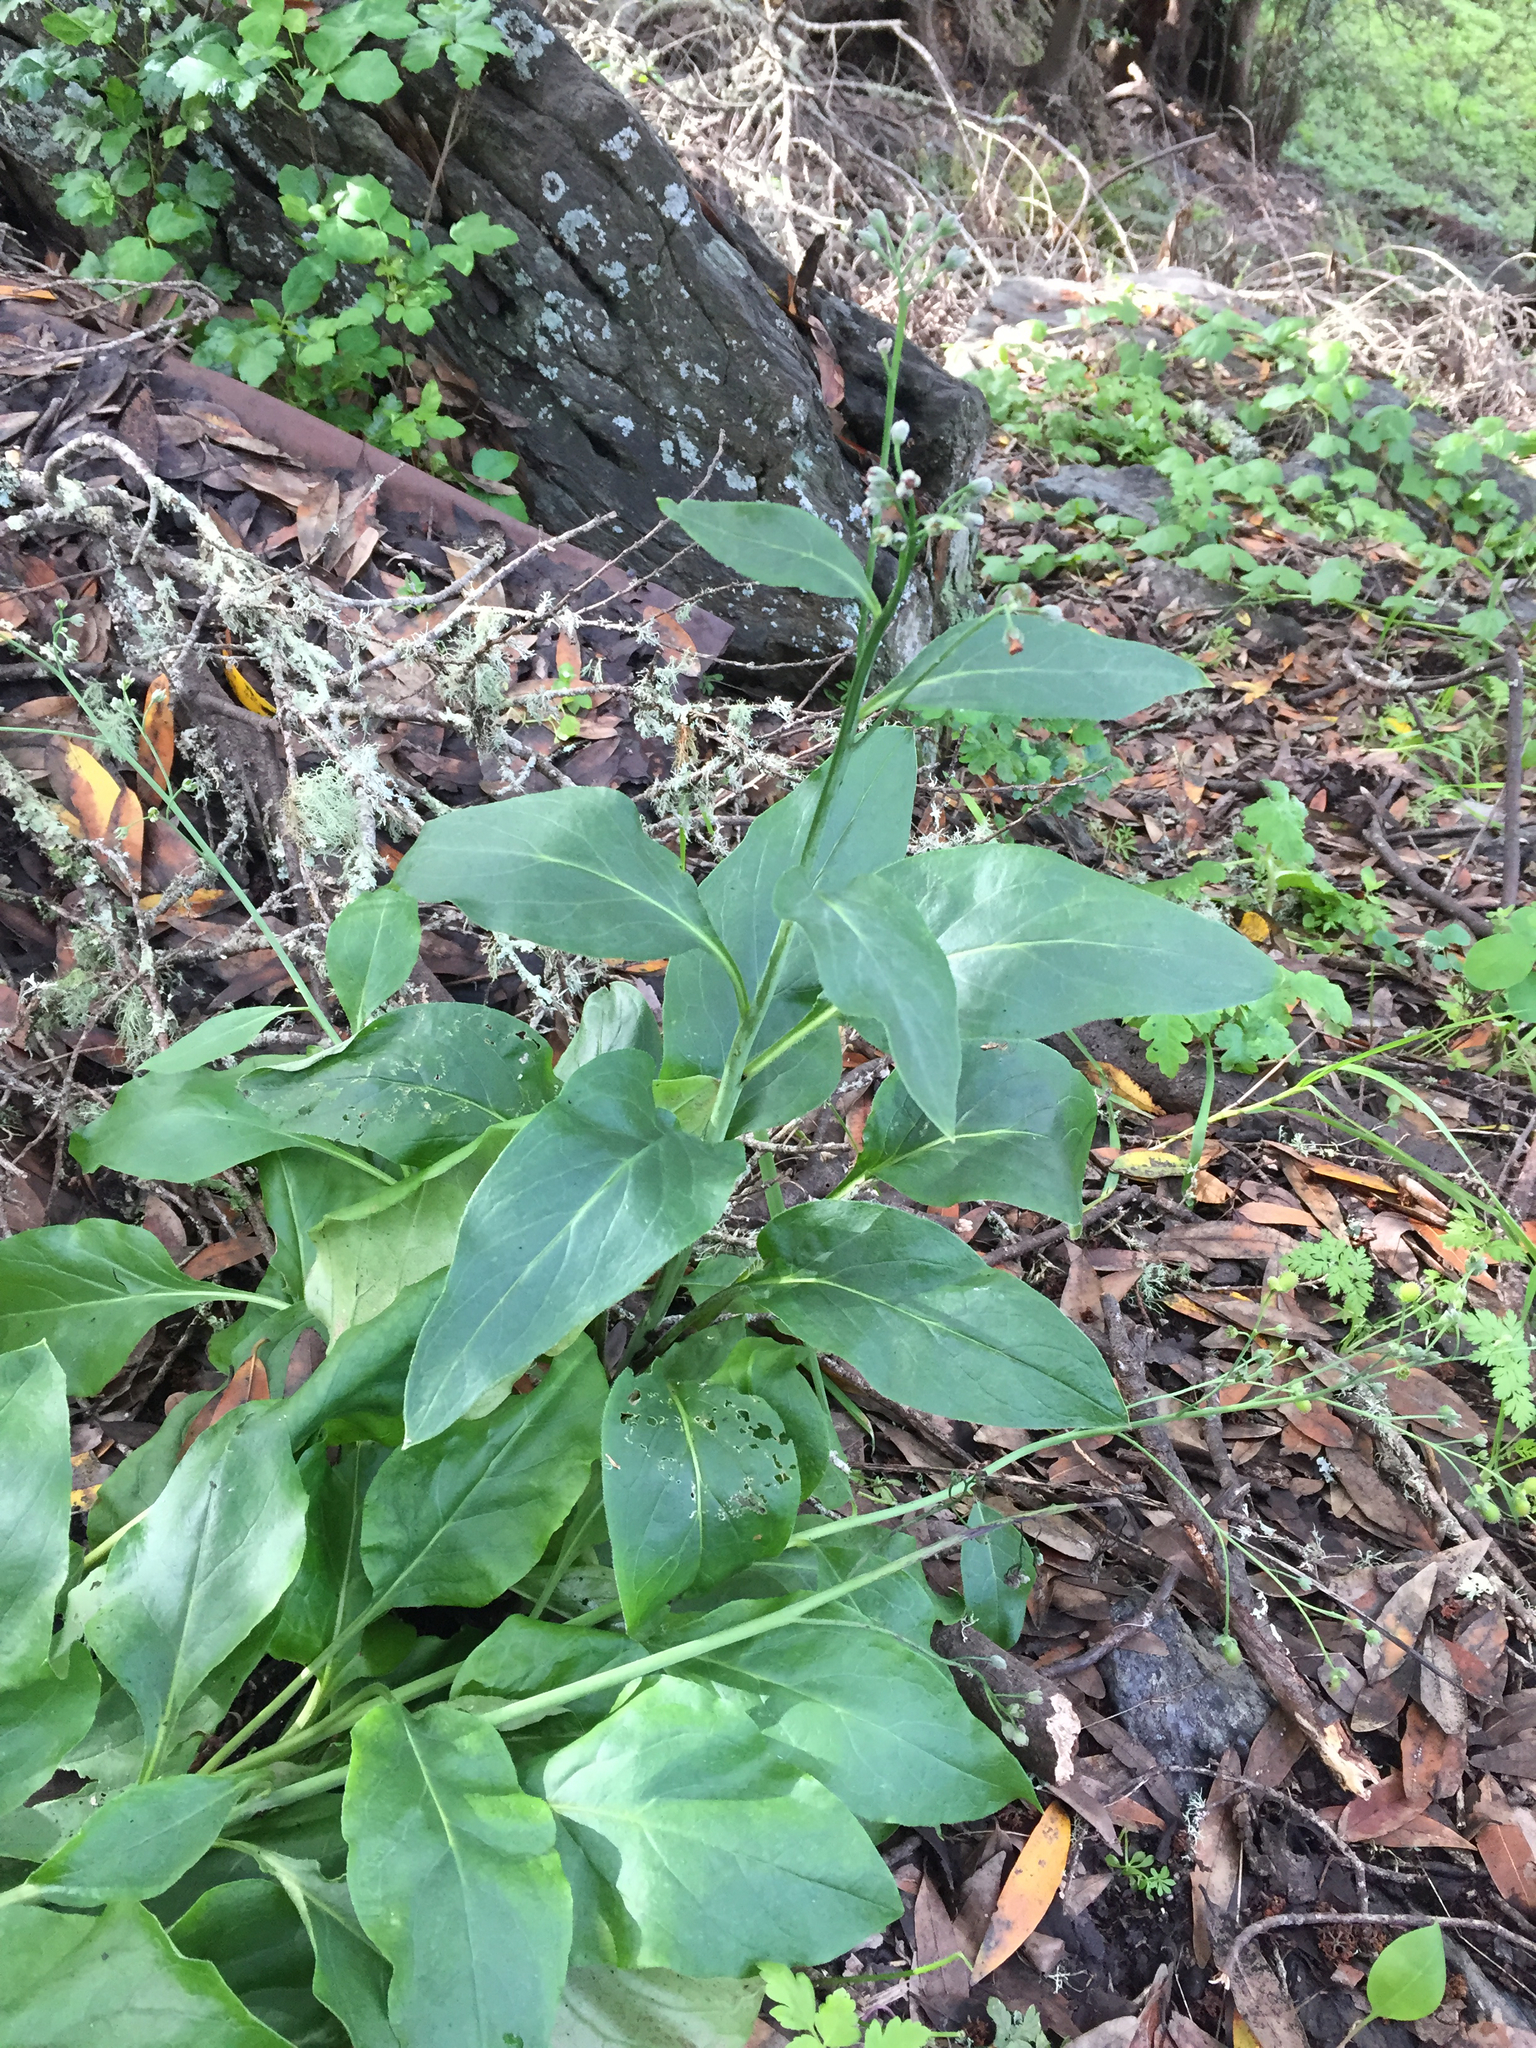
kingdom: Plantae
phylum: Tracheophyta
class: Magnoliopsida
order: Boraginales
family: Boraginaceae
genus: Adelinia
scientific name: Adelinia grande
